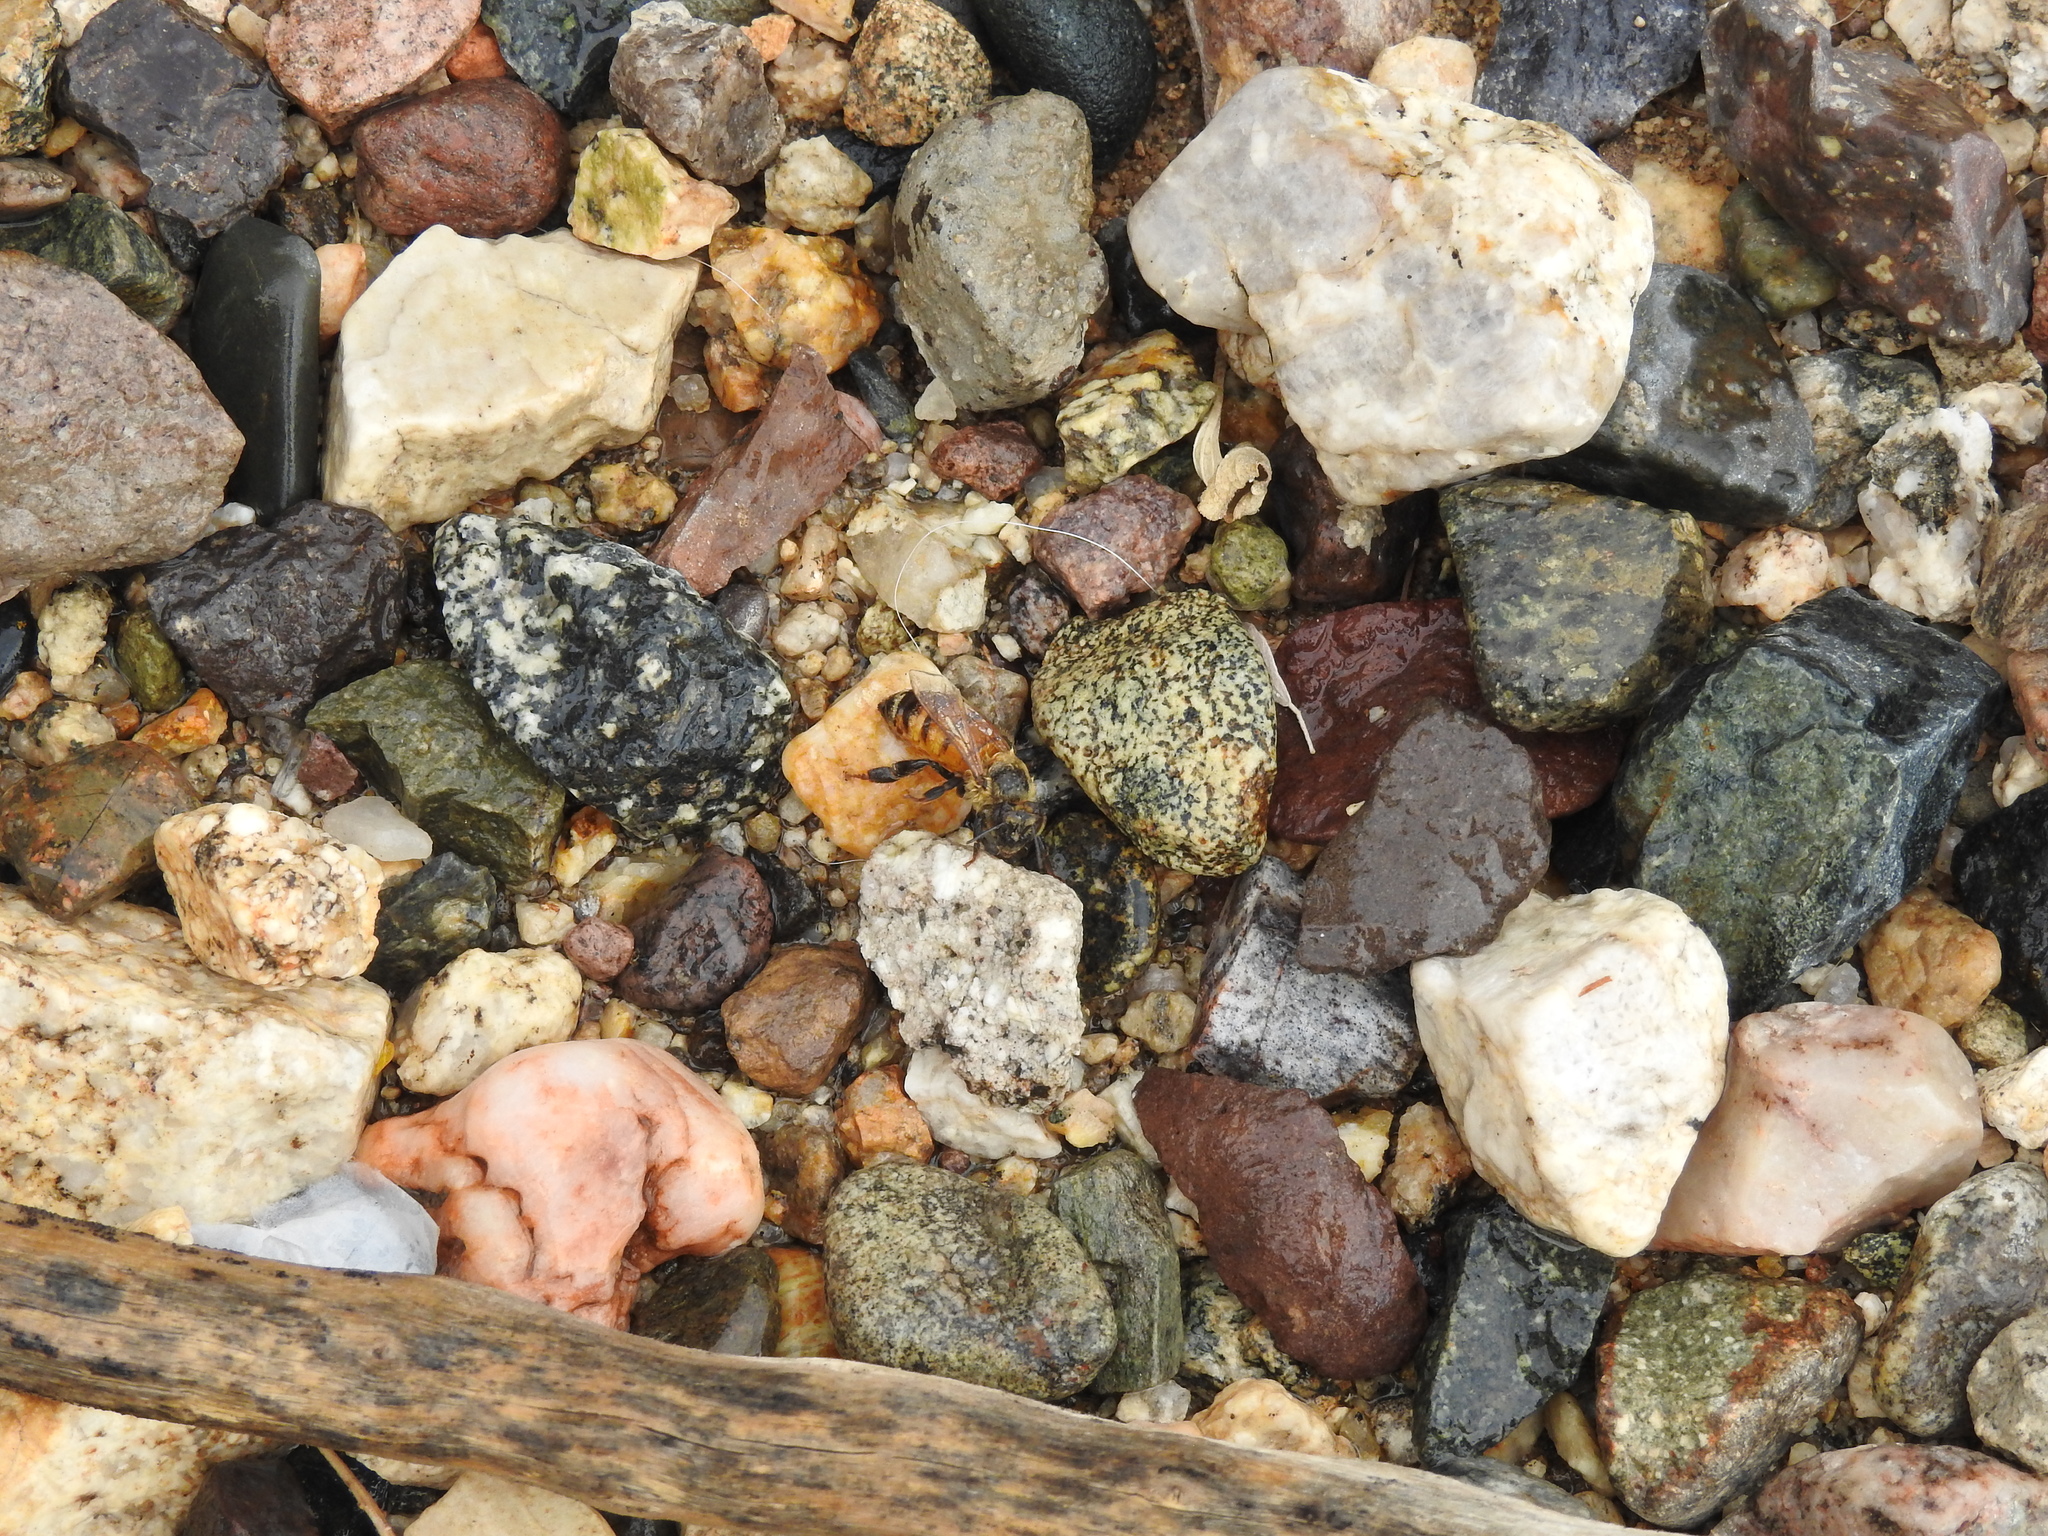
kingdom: Animalia
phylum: Arthropoda
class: Insecta
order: Hymenoptera
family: Apidae
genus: Apis
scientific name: Apis mellifera
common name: Honey bee
